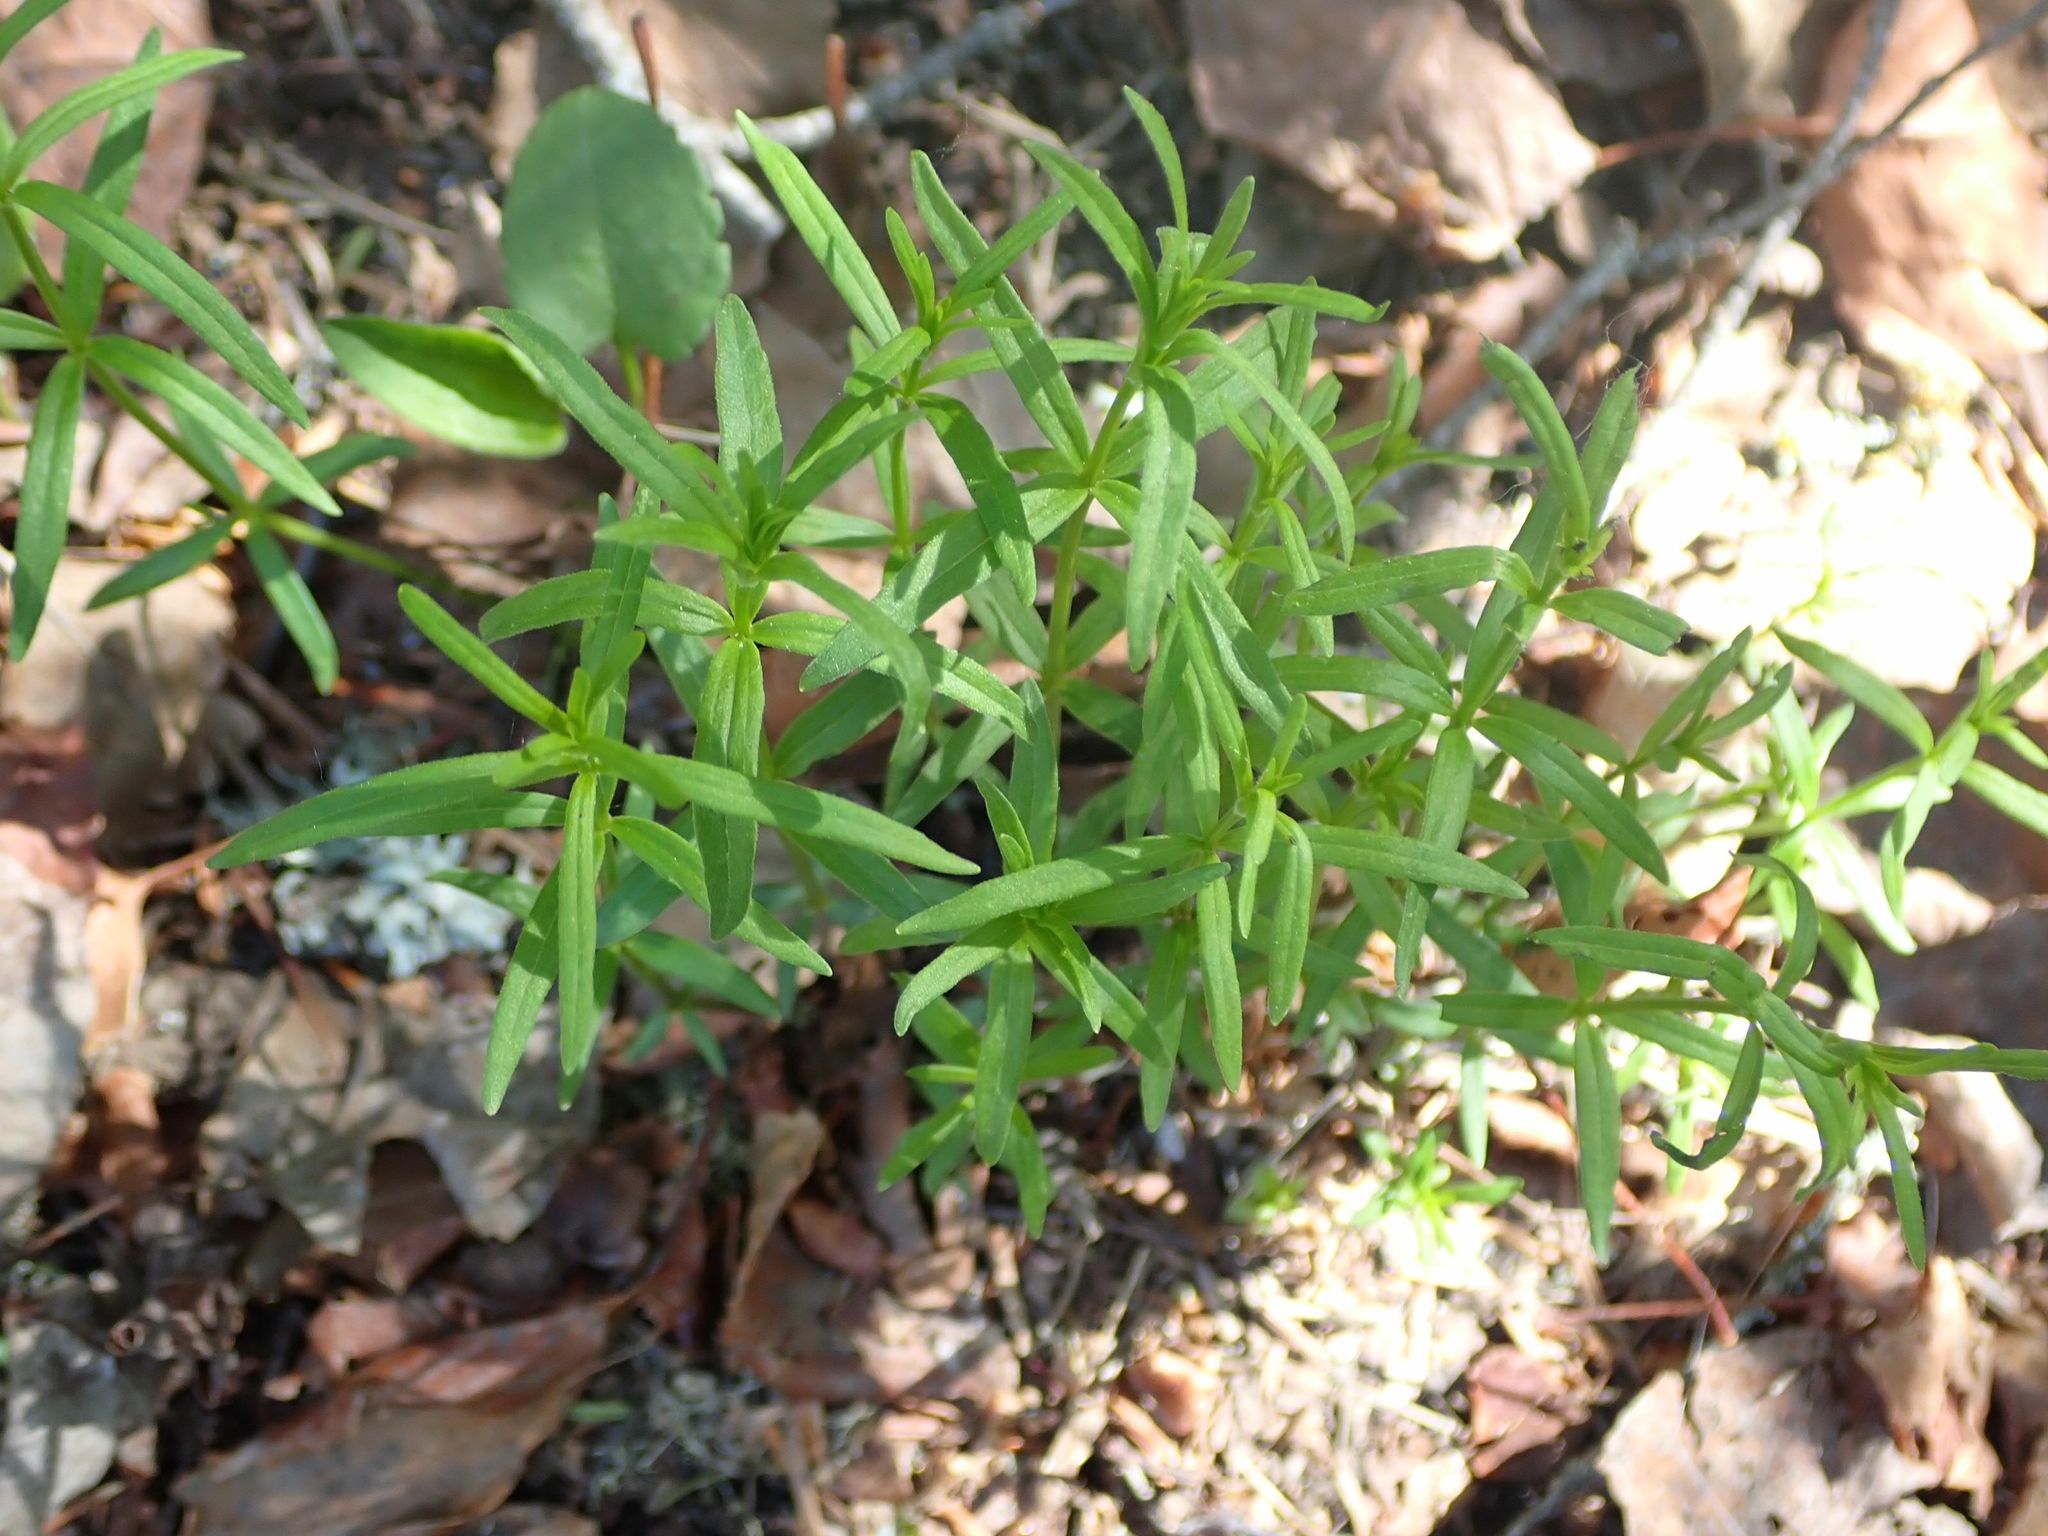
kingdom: Plantae
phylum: Tracheophyta
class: Magnoliopsida
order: Gentianales
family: Rubiaceae
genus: Galium
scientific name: Galium boreale
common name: Northern bedstraw
